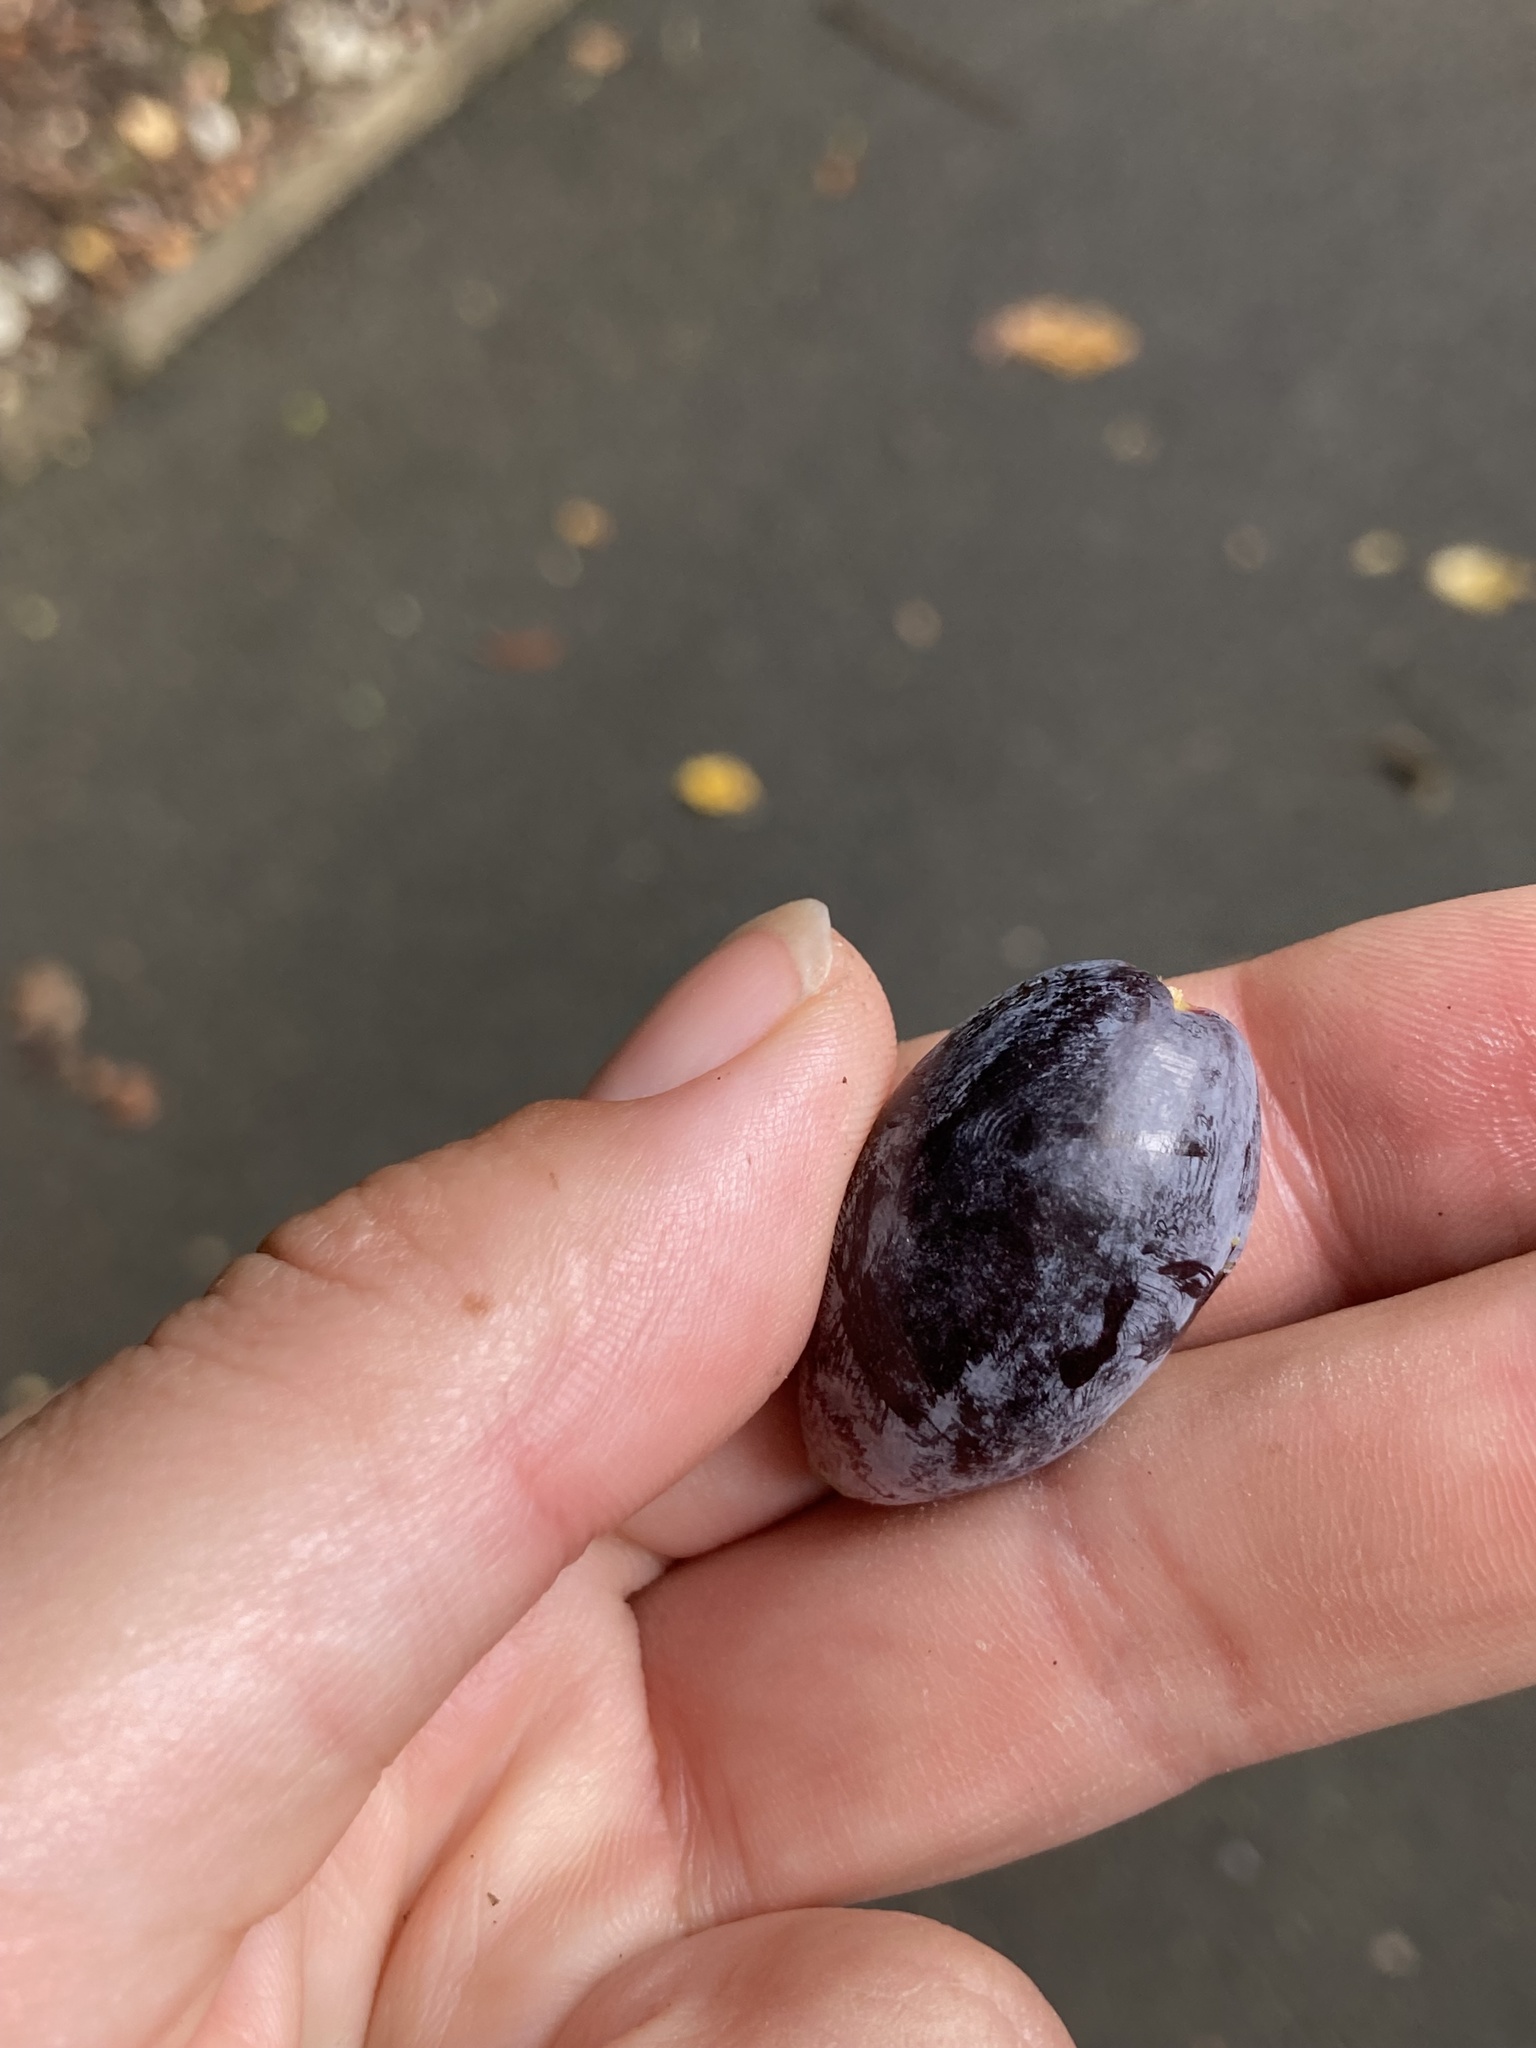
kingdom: Plantae
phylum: Tracheophyta
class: Magnoliopsida
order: Laurales
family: Lauraceae
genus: Beilschmiedia
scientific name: Beilschmiedia tawa
